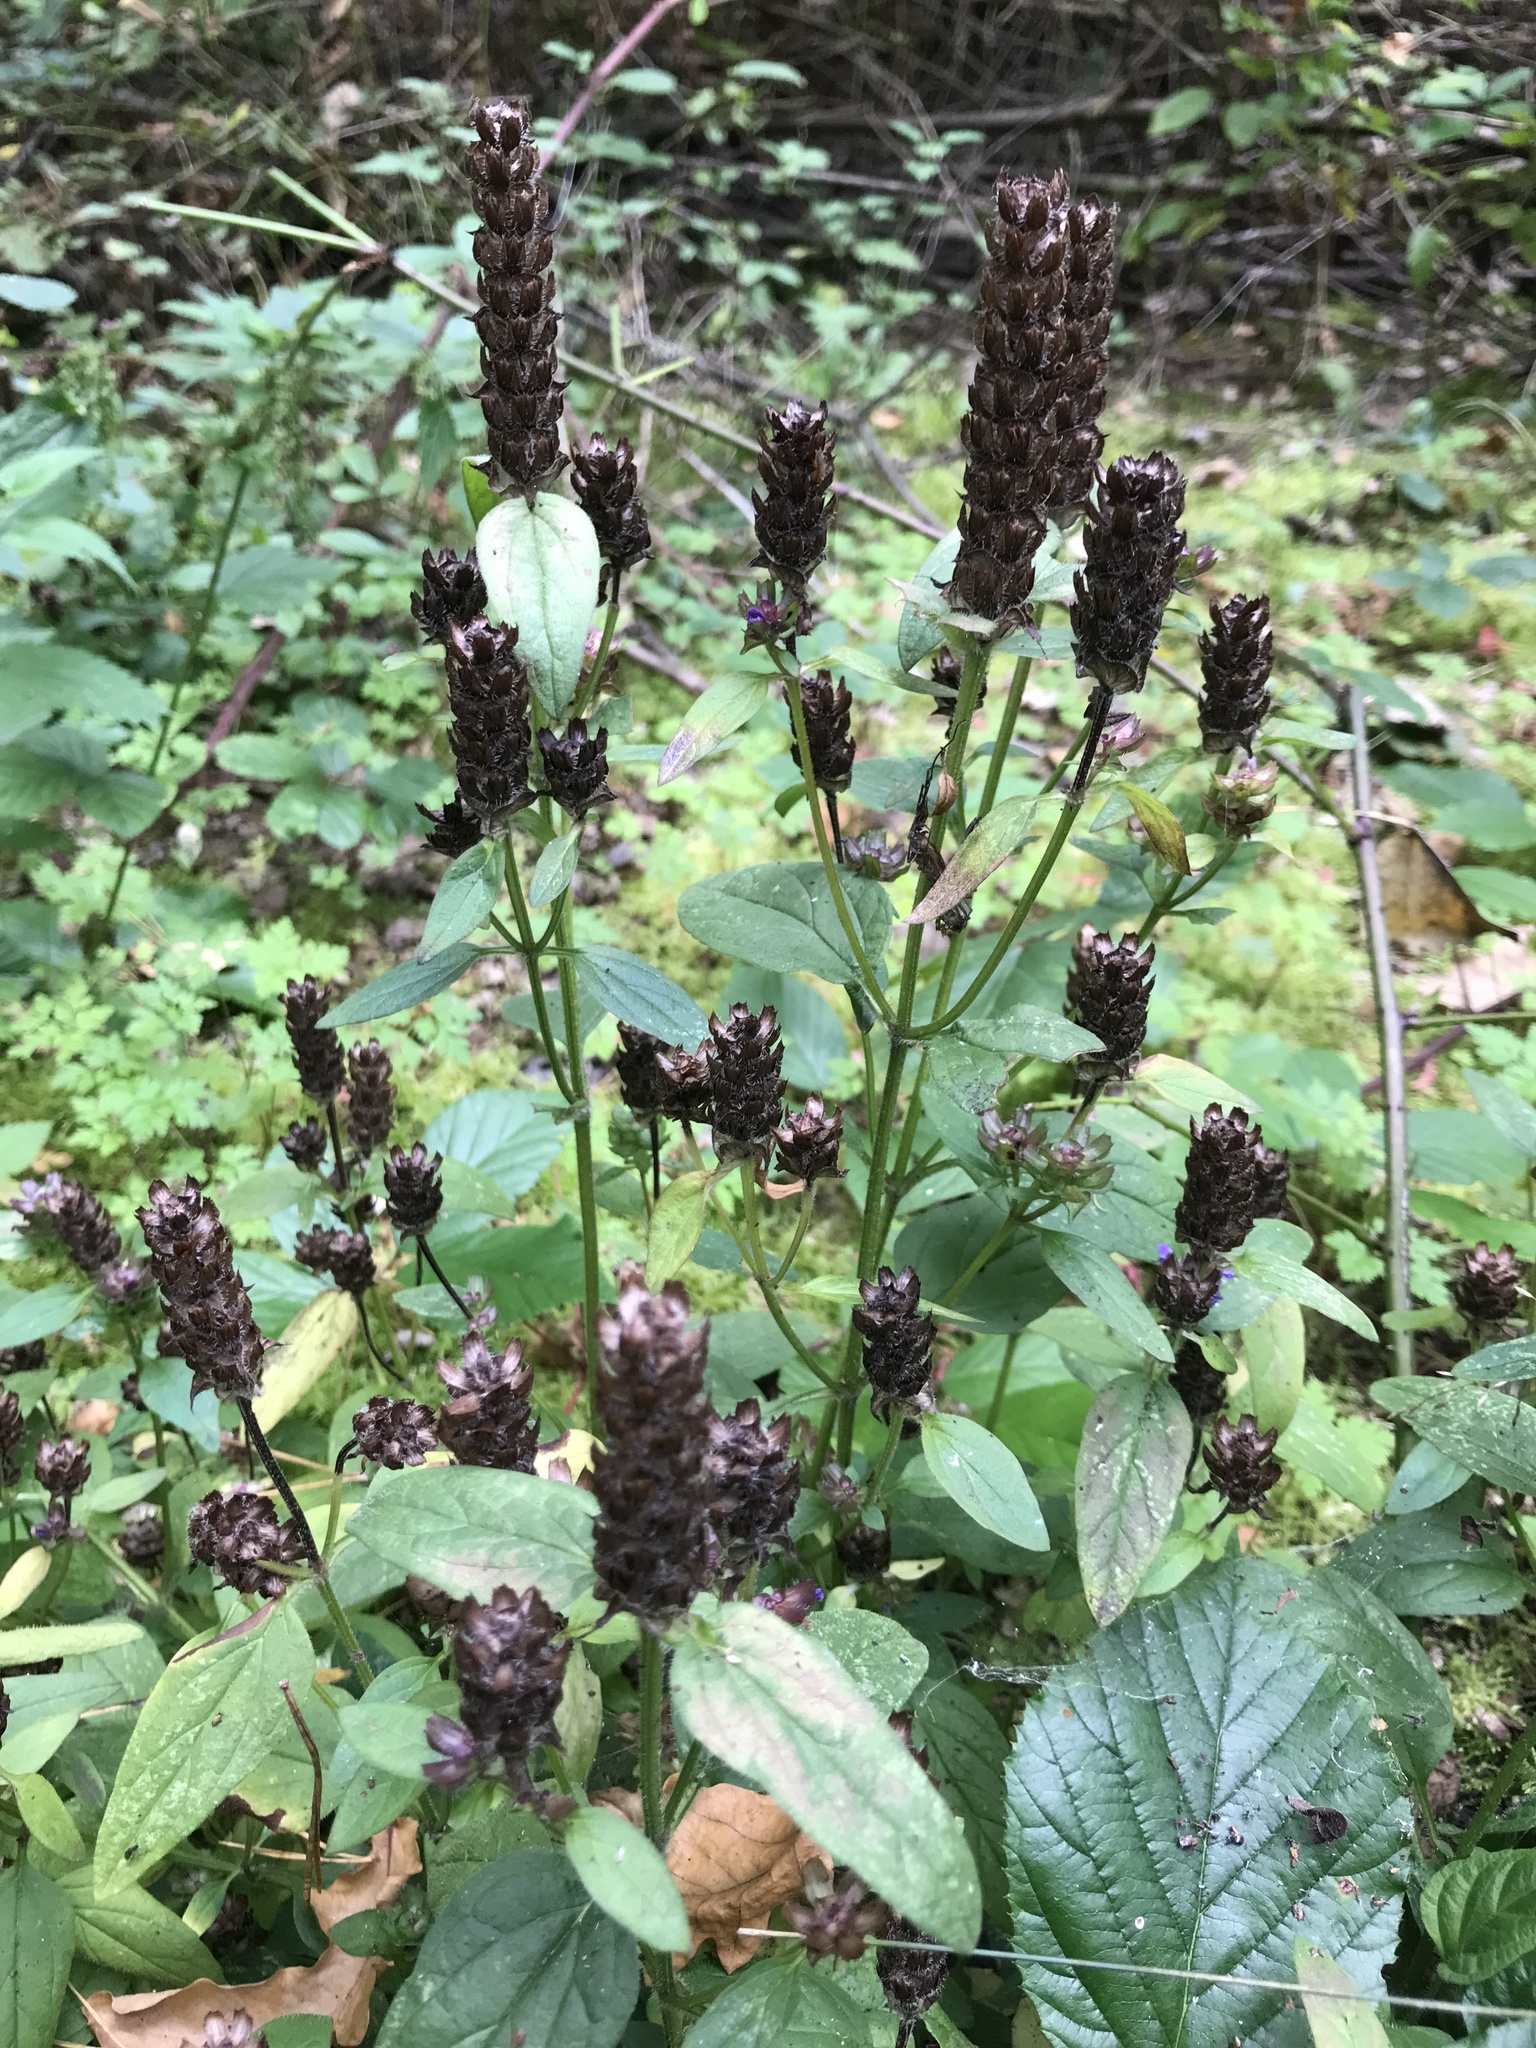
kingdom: Plantae
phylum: Tracheophyta
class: Magnoliopsida
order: Lamiales
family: Lamiaceae
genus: Prunella
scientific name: Prunella vulgaris
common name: Heal-all
